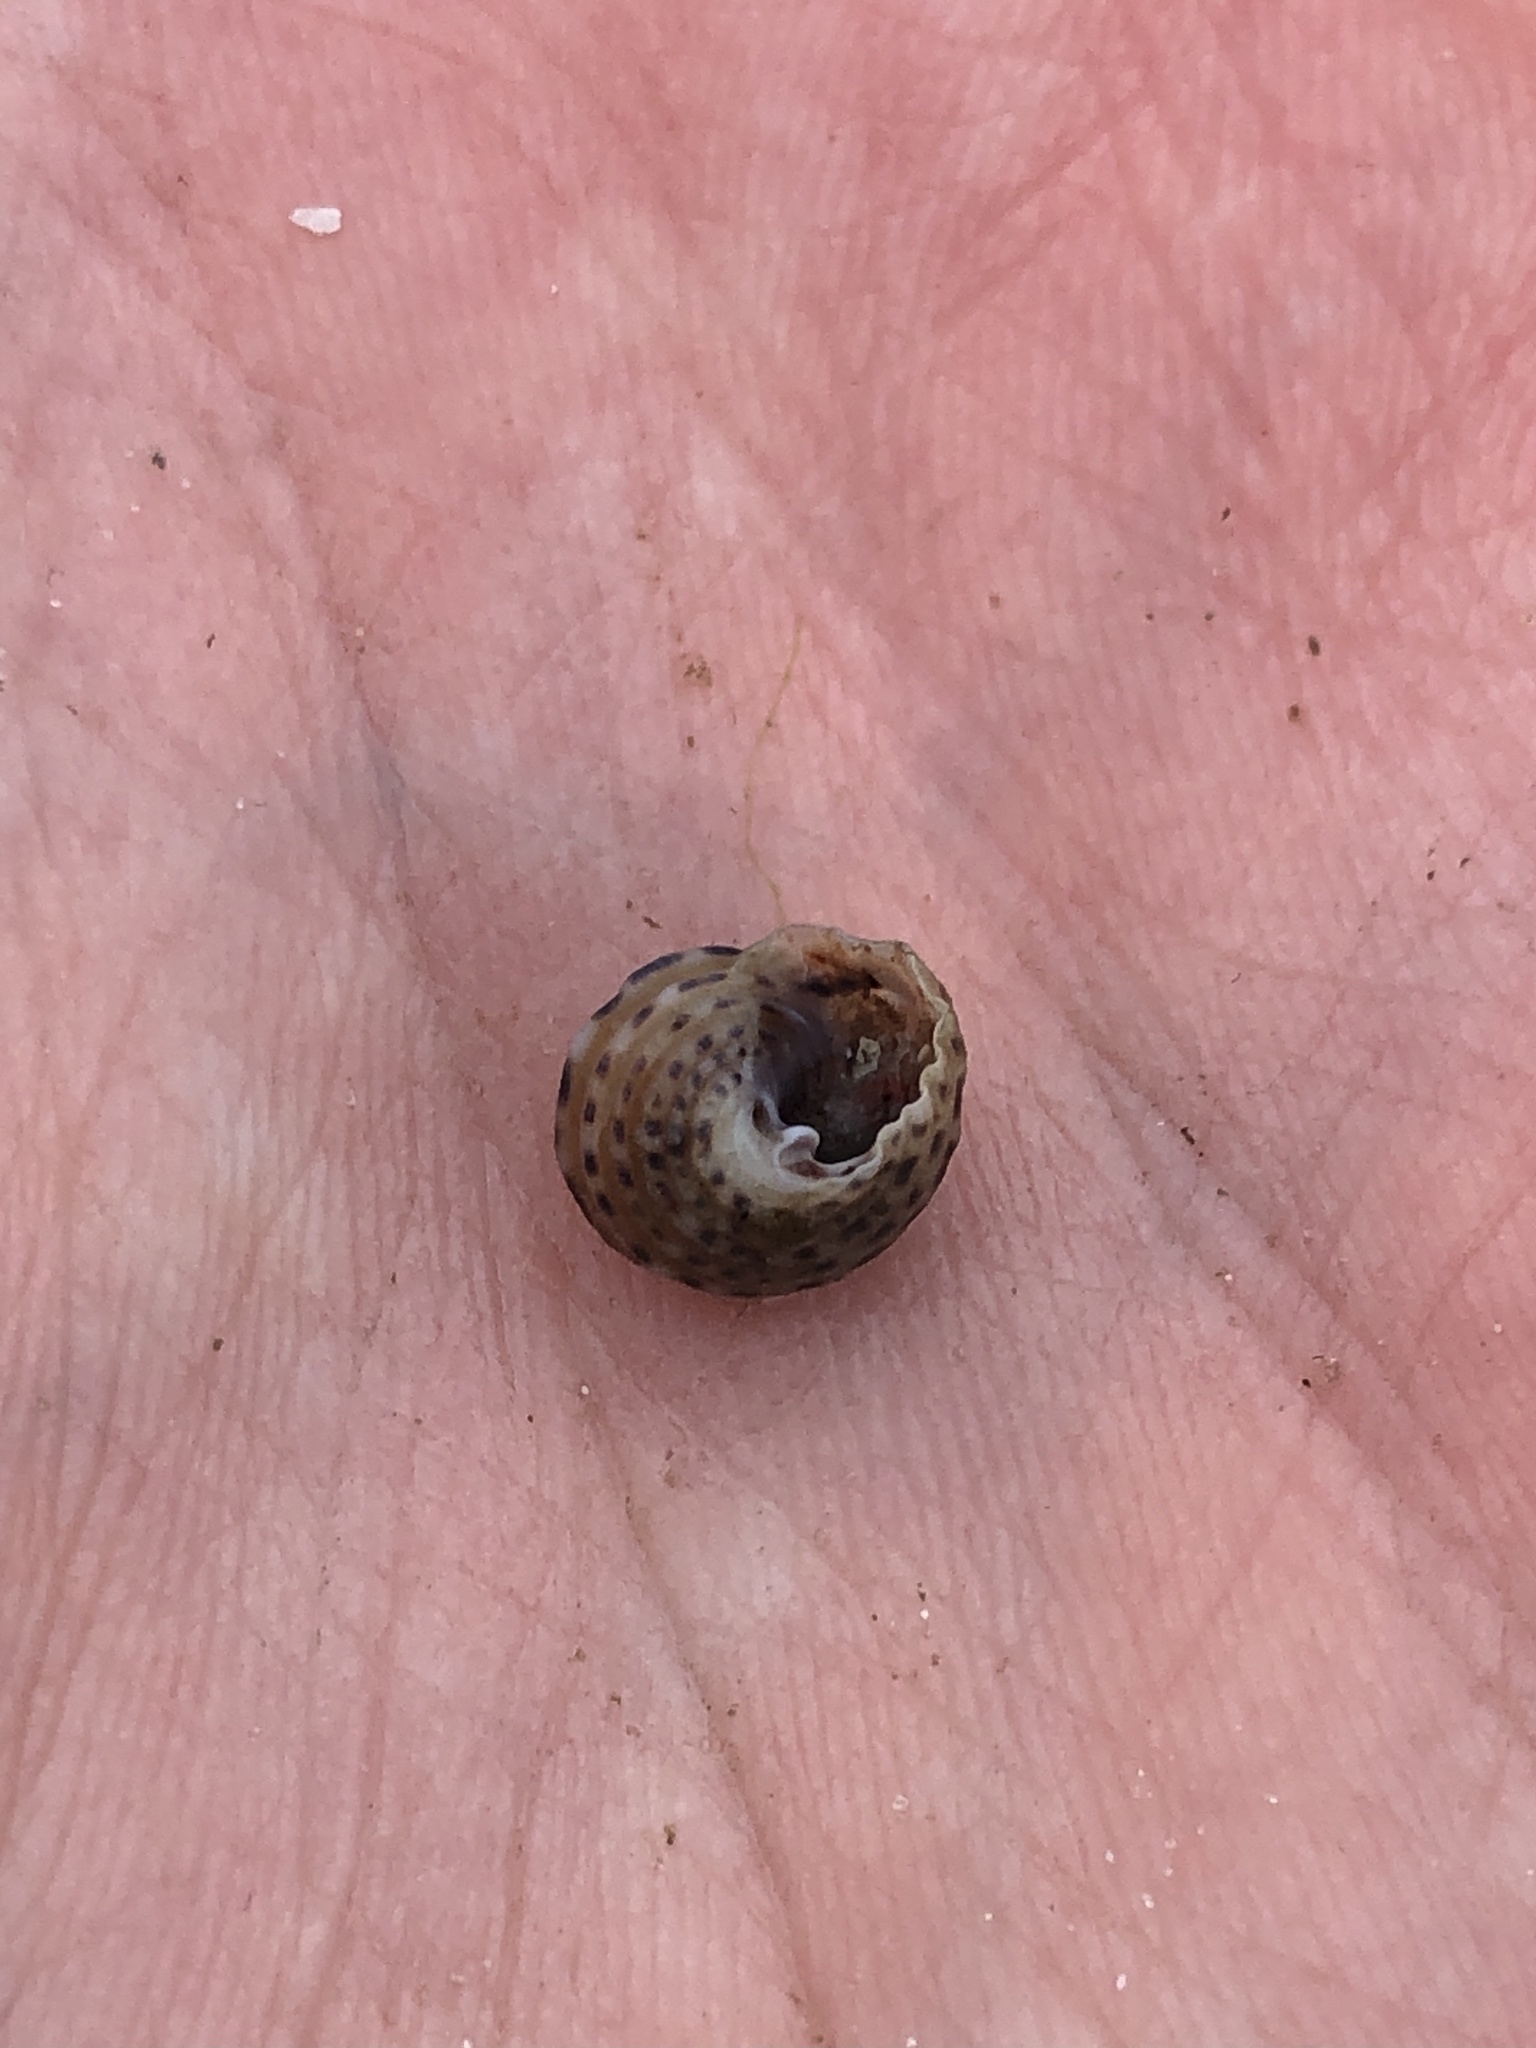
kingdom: Animalia
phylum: Mollusca
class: Gastropoda
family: Modulidae
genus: Modulus
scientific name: Modulus modulus
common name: Atlantic modulus
